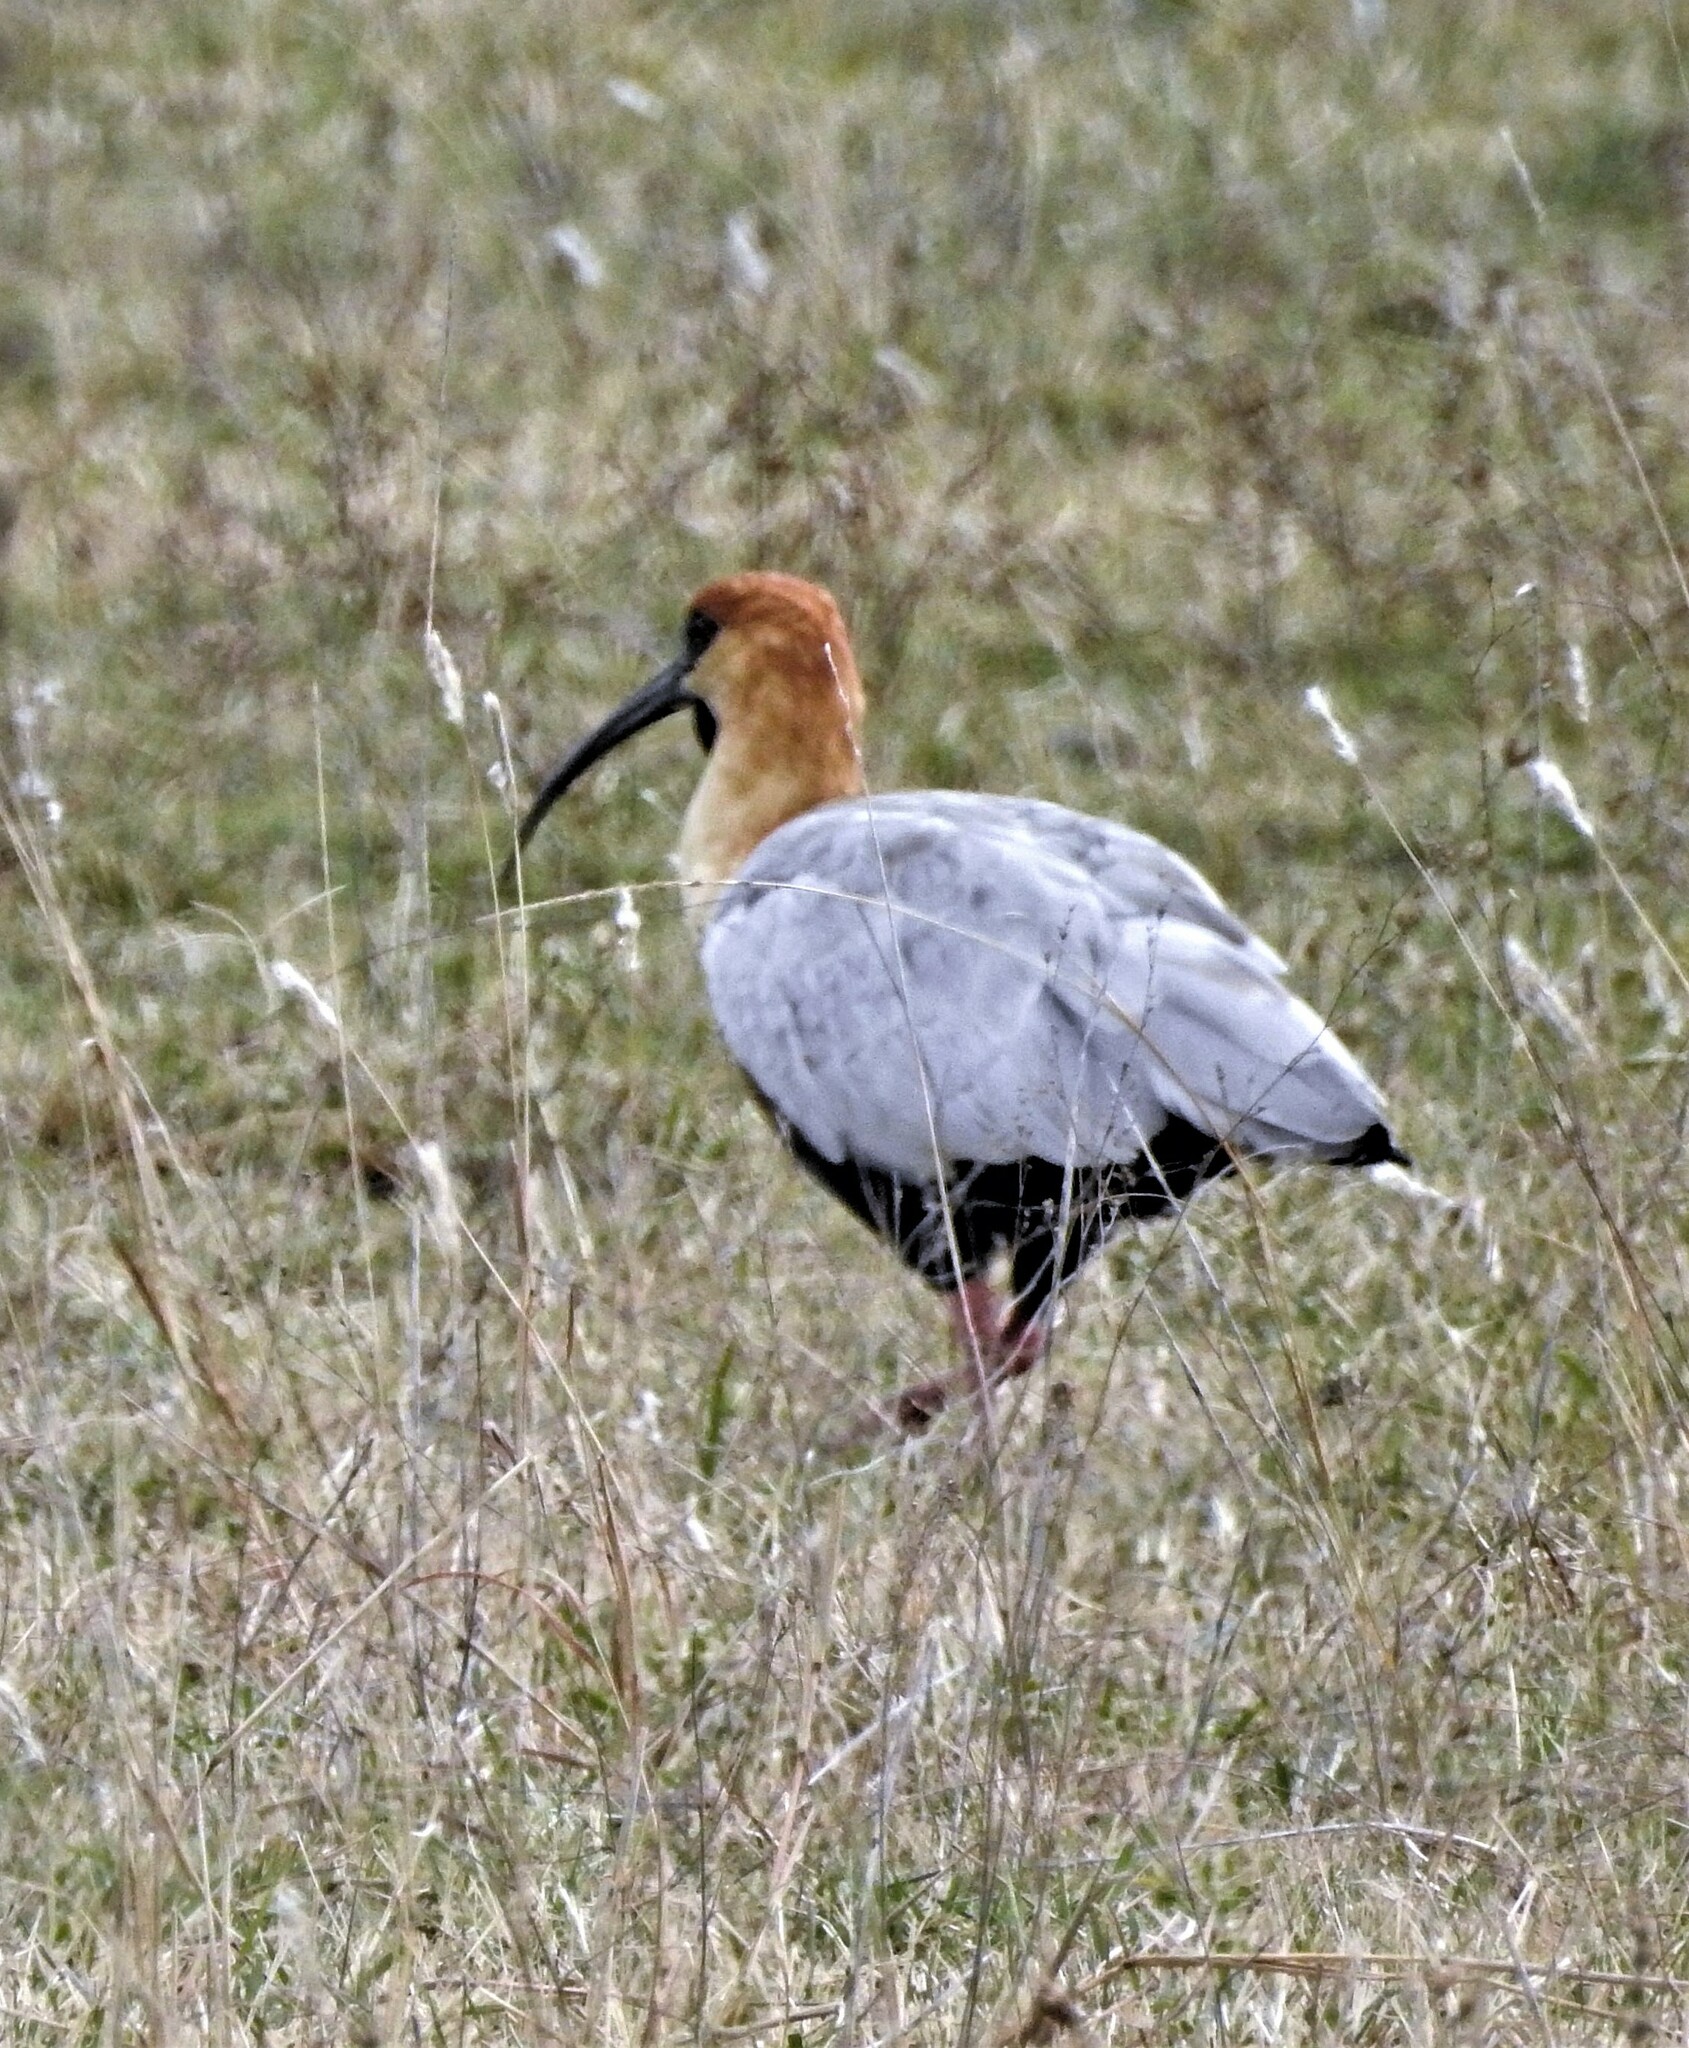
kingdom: Animalia
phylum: Chordata
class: Aves
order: Pelecaniformes
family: Threskiornithidae
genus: Theristicus
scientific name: Theristicus melanopis
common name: Black-faced ibis
